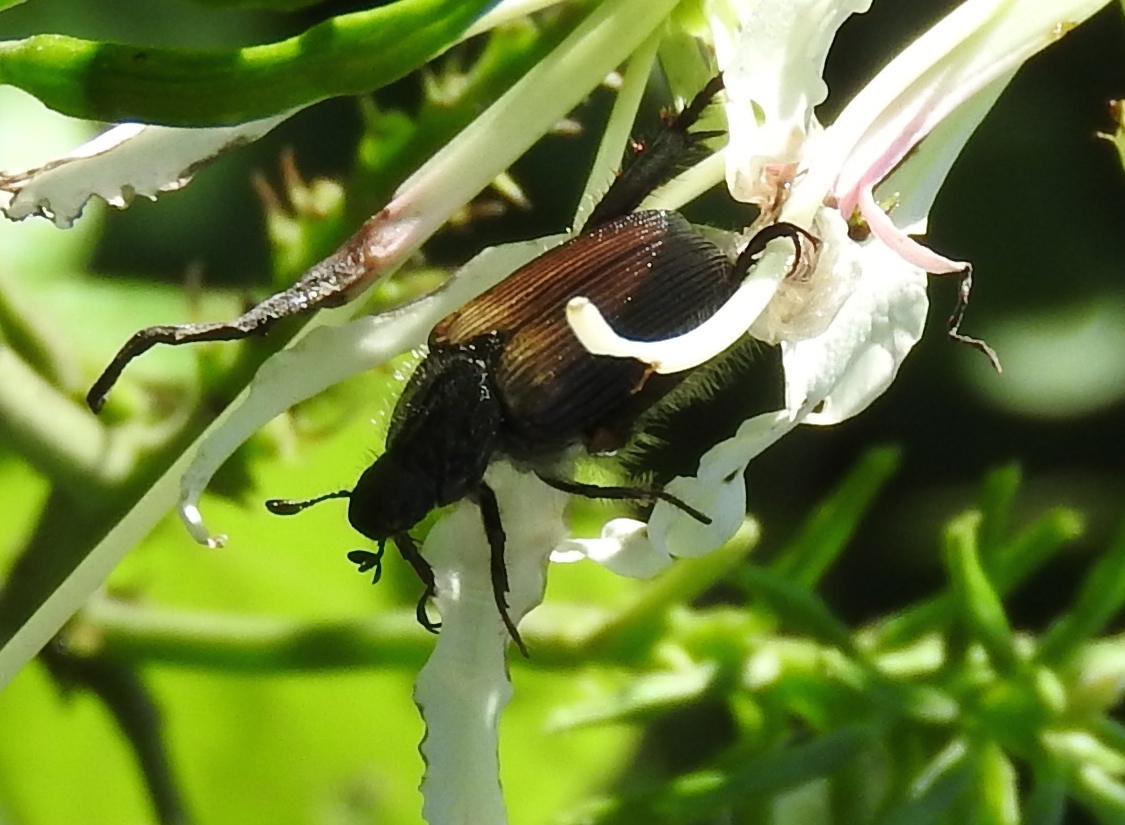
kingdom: Animalia
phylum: Arthropoda
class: Insecta
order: Coleoptera
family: Scarabaeidae
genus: Strigoderma
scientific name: Strigoderma sulcipennis
